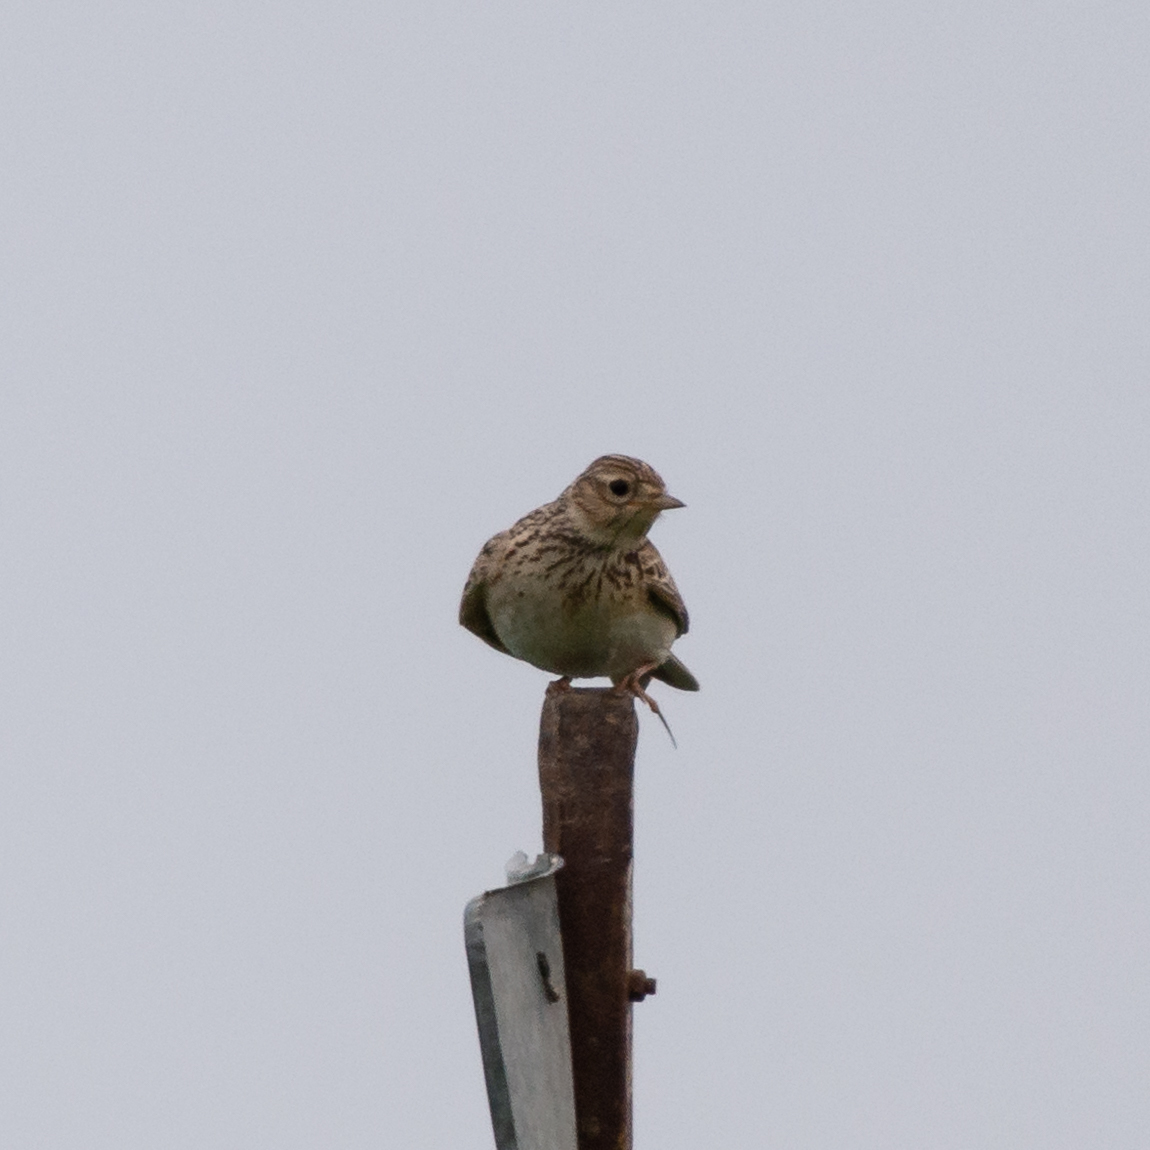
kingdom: Animalia
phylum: Chordata
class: Aves
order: Passeriformes
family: Alaudidae
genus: Alauda
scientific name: Alauda arvensis
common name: Eurasian skylark
